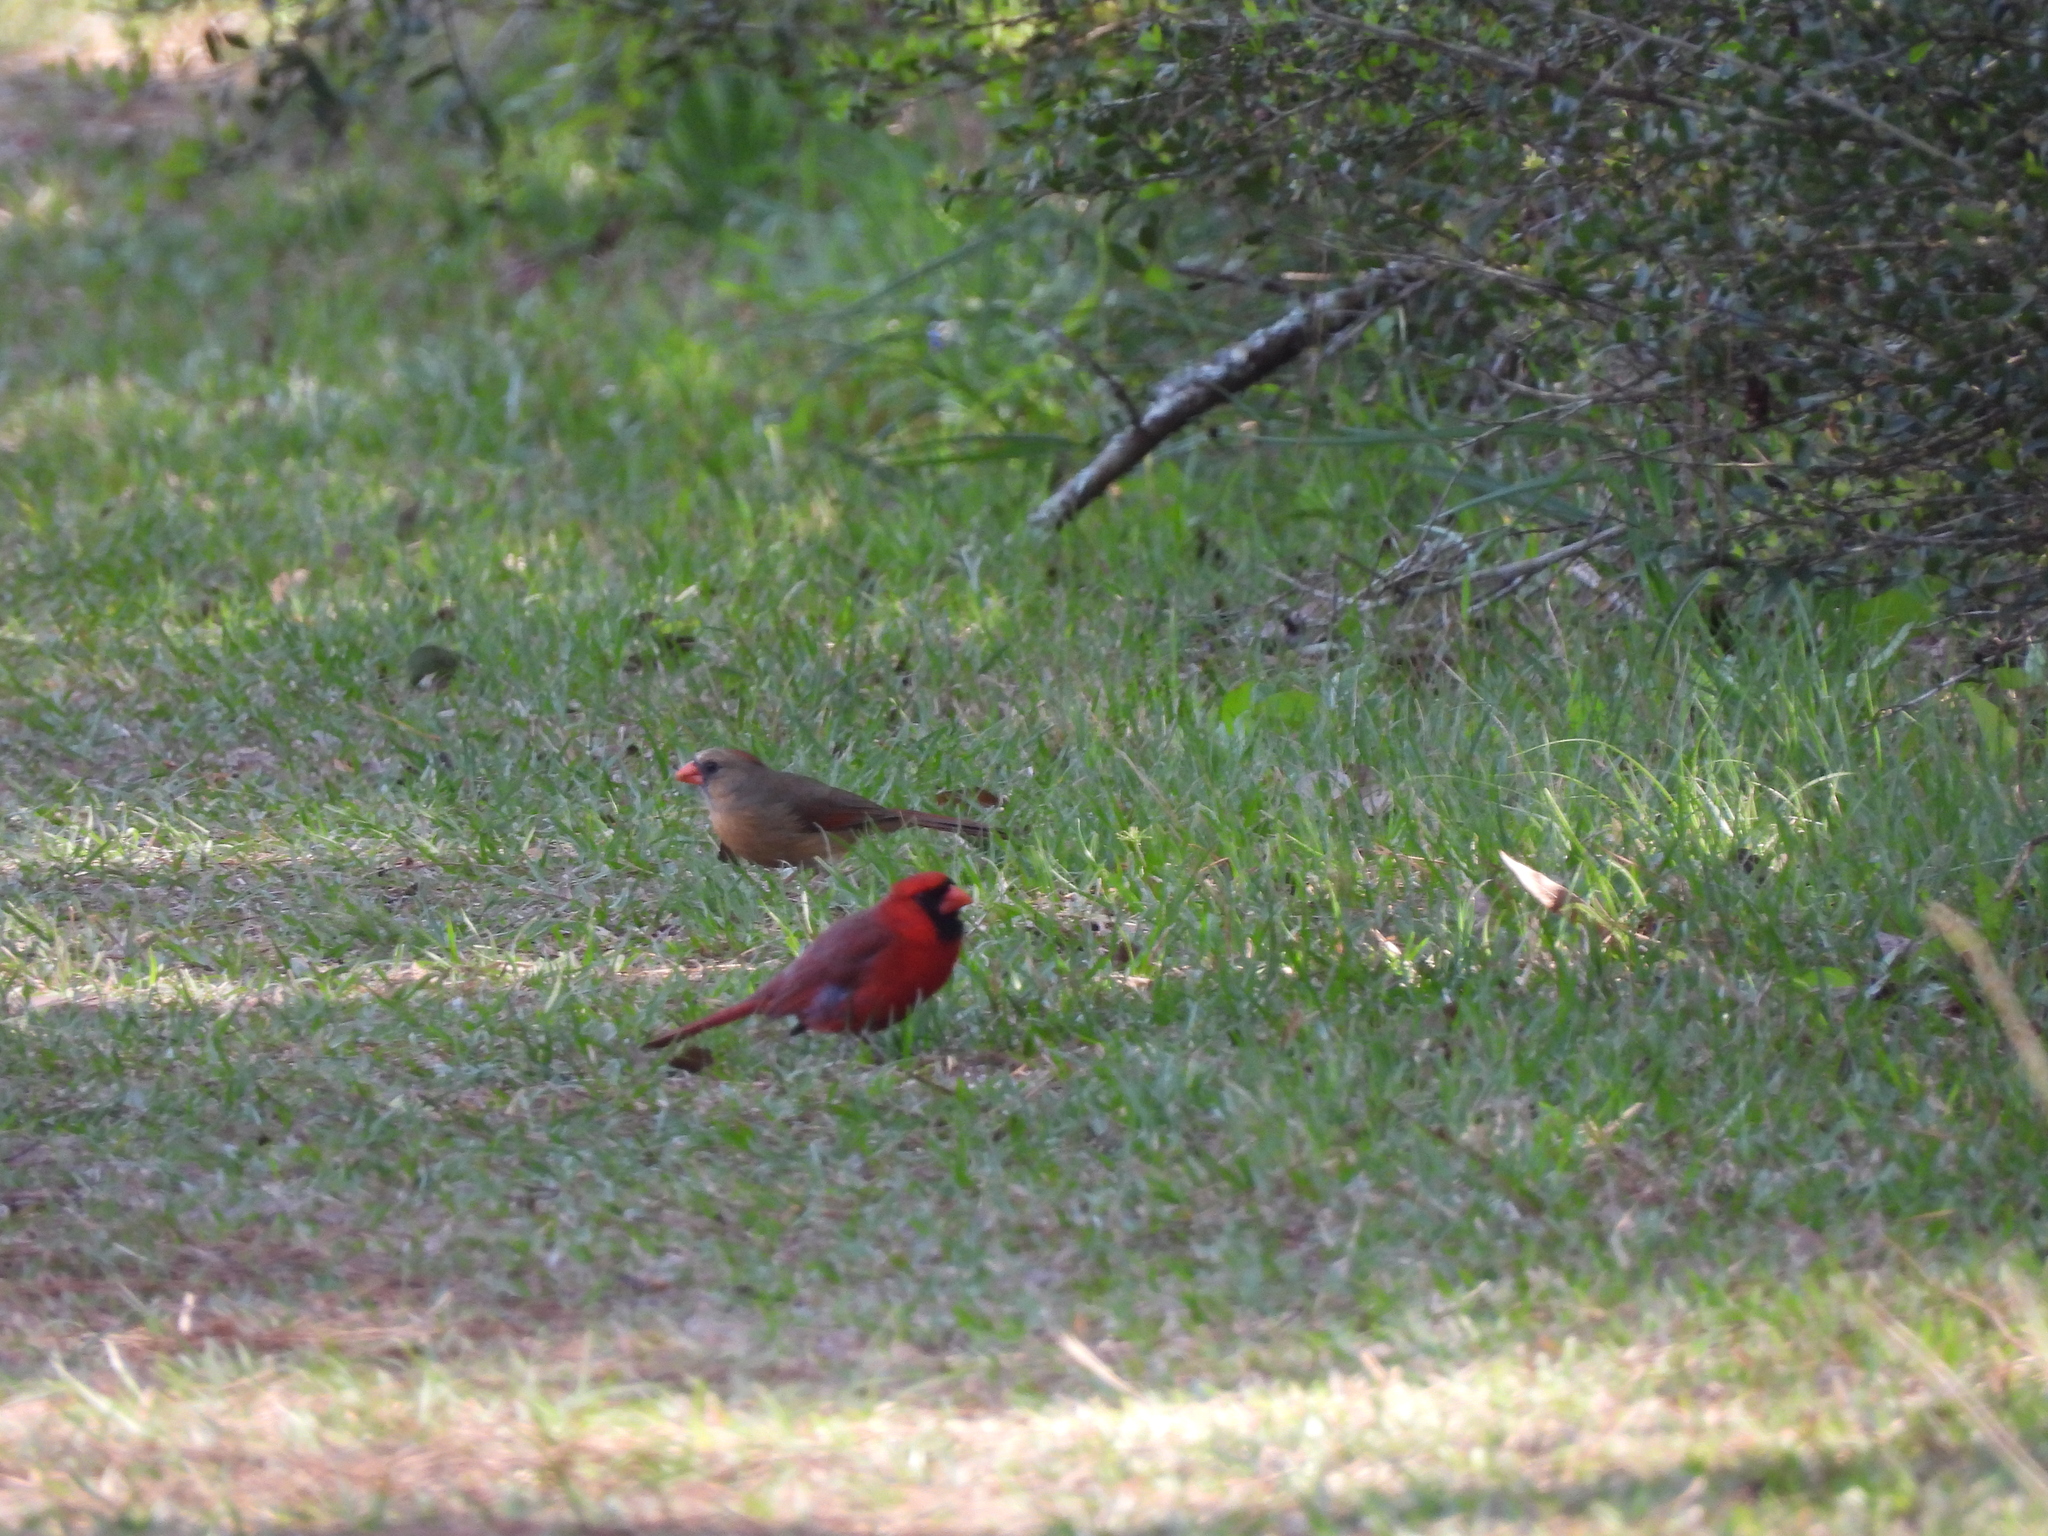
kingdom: Animalia
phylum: Chordata
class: Aves
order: Passeriformes
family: Cardinalidae
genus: Cardinalis
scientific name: Cardinalis cardinalis
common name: Northern cardinal
